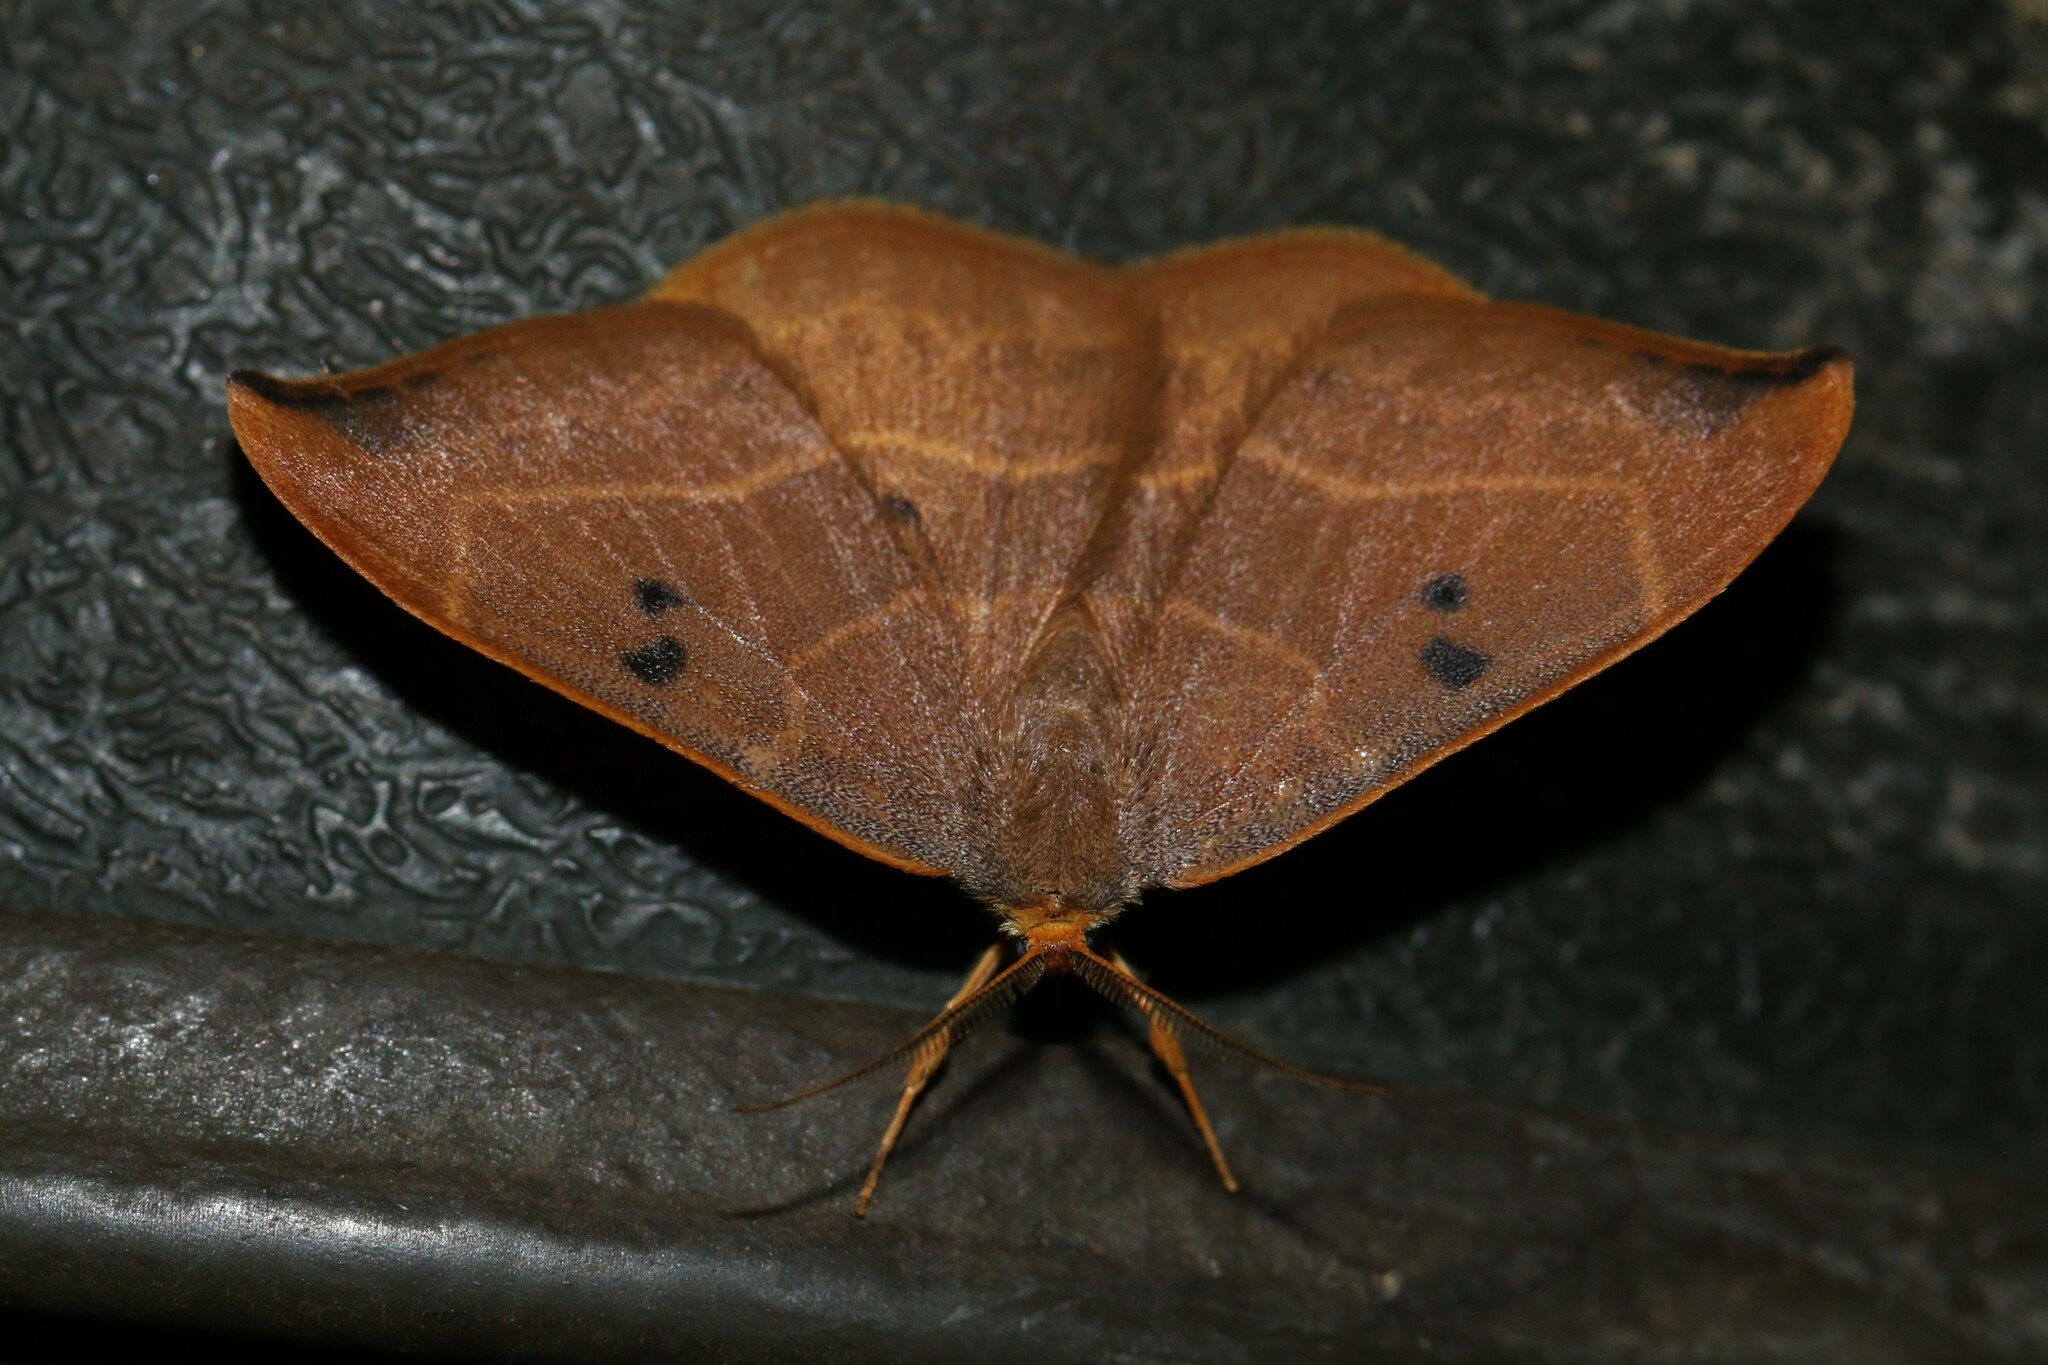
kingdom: Animalia
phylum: Arthropoda
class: Insecta
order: Lepidoptera
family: Drepanidae
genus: Watsonalla
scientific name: Watsonalla binaria
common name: Oak hook-tip
